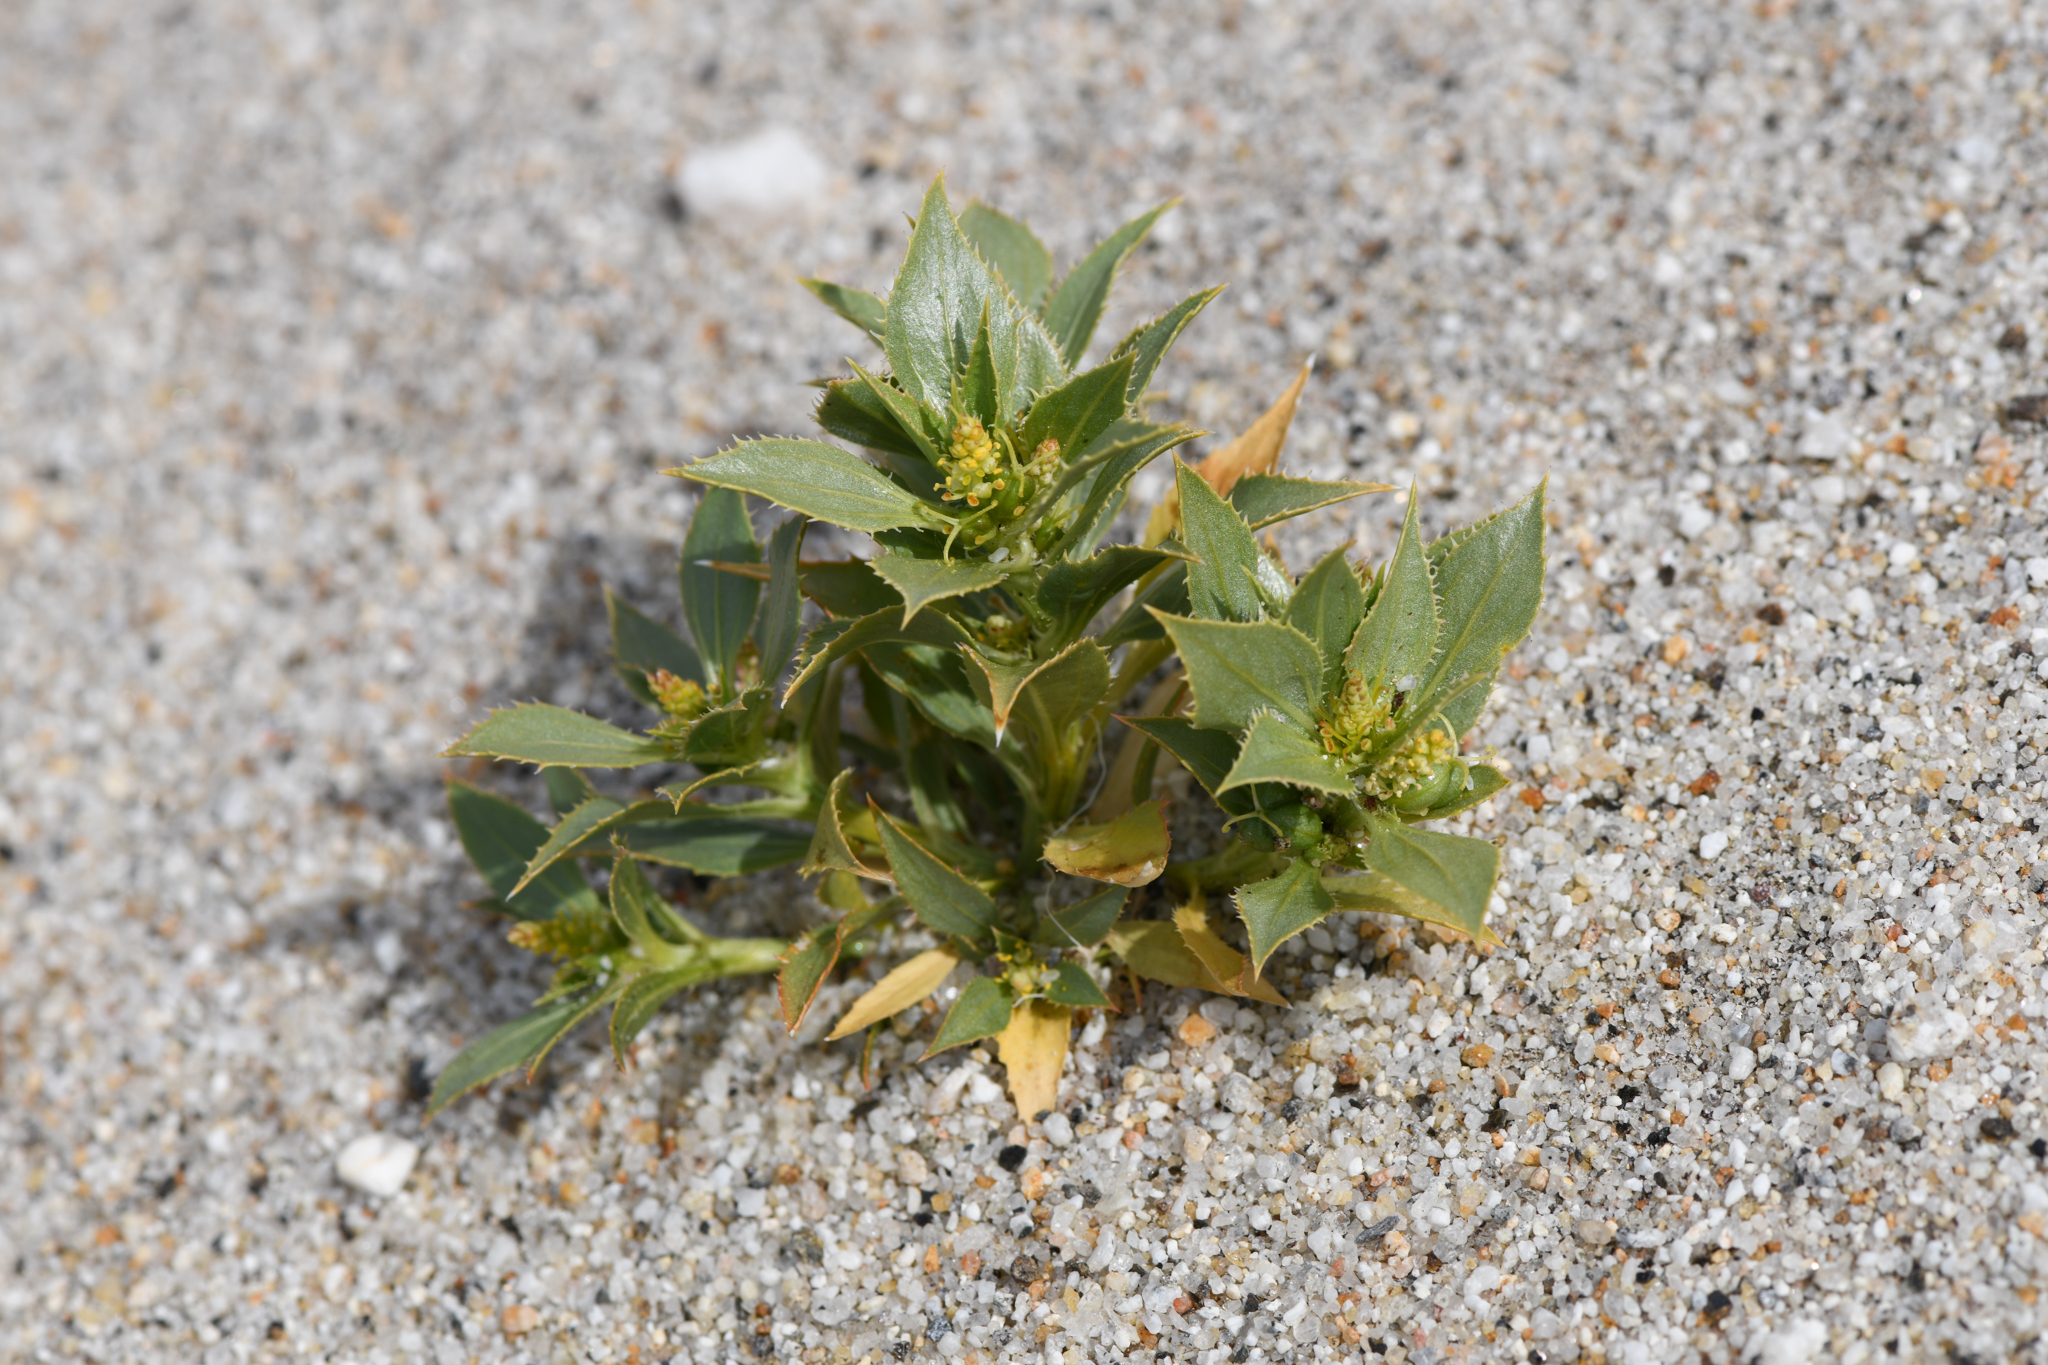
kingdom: Plantae
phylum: Tracheophyta
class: Magnoliopsida
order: Malpighiales
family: Euphorbiaceae
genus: Stillingia
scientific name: Stillingia spinulosa
